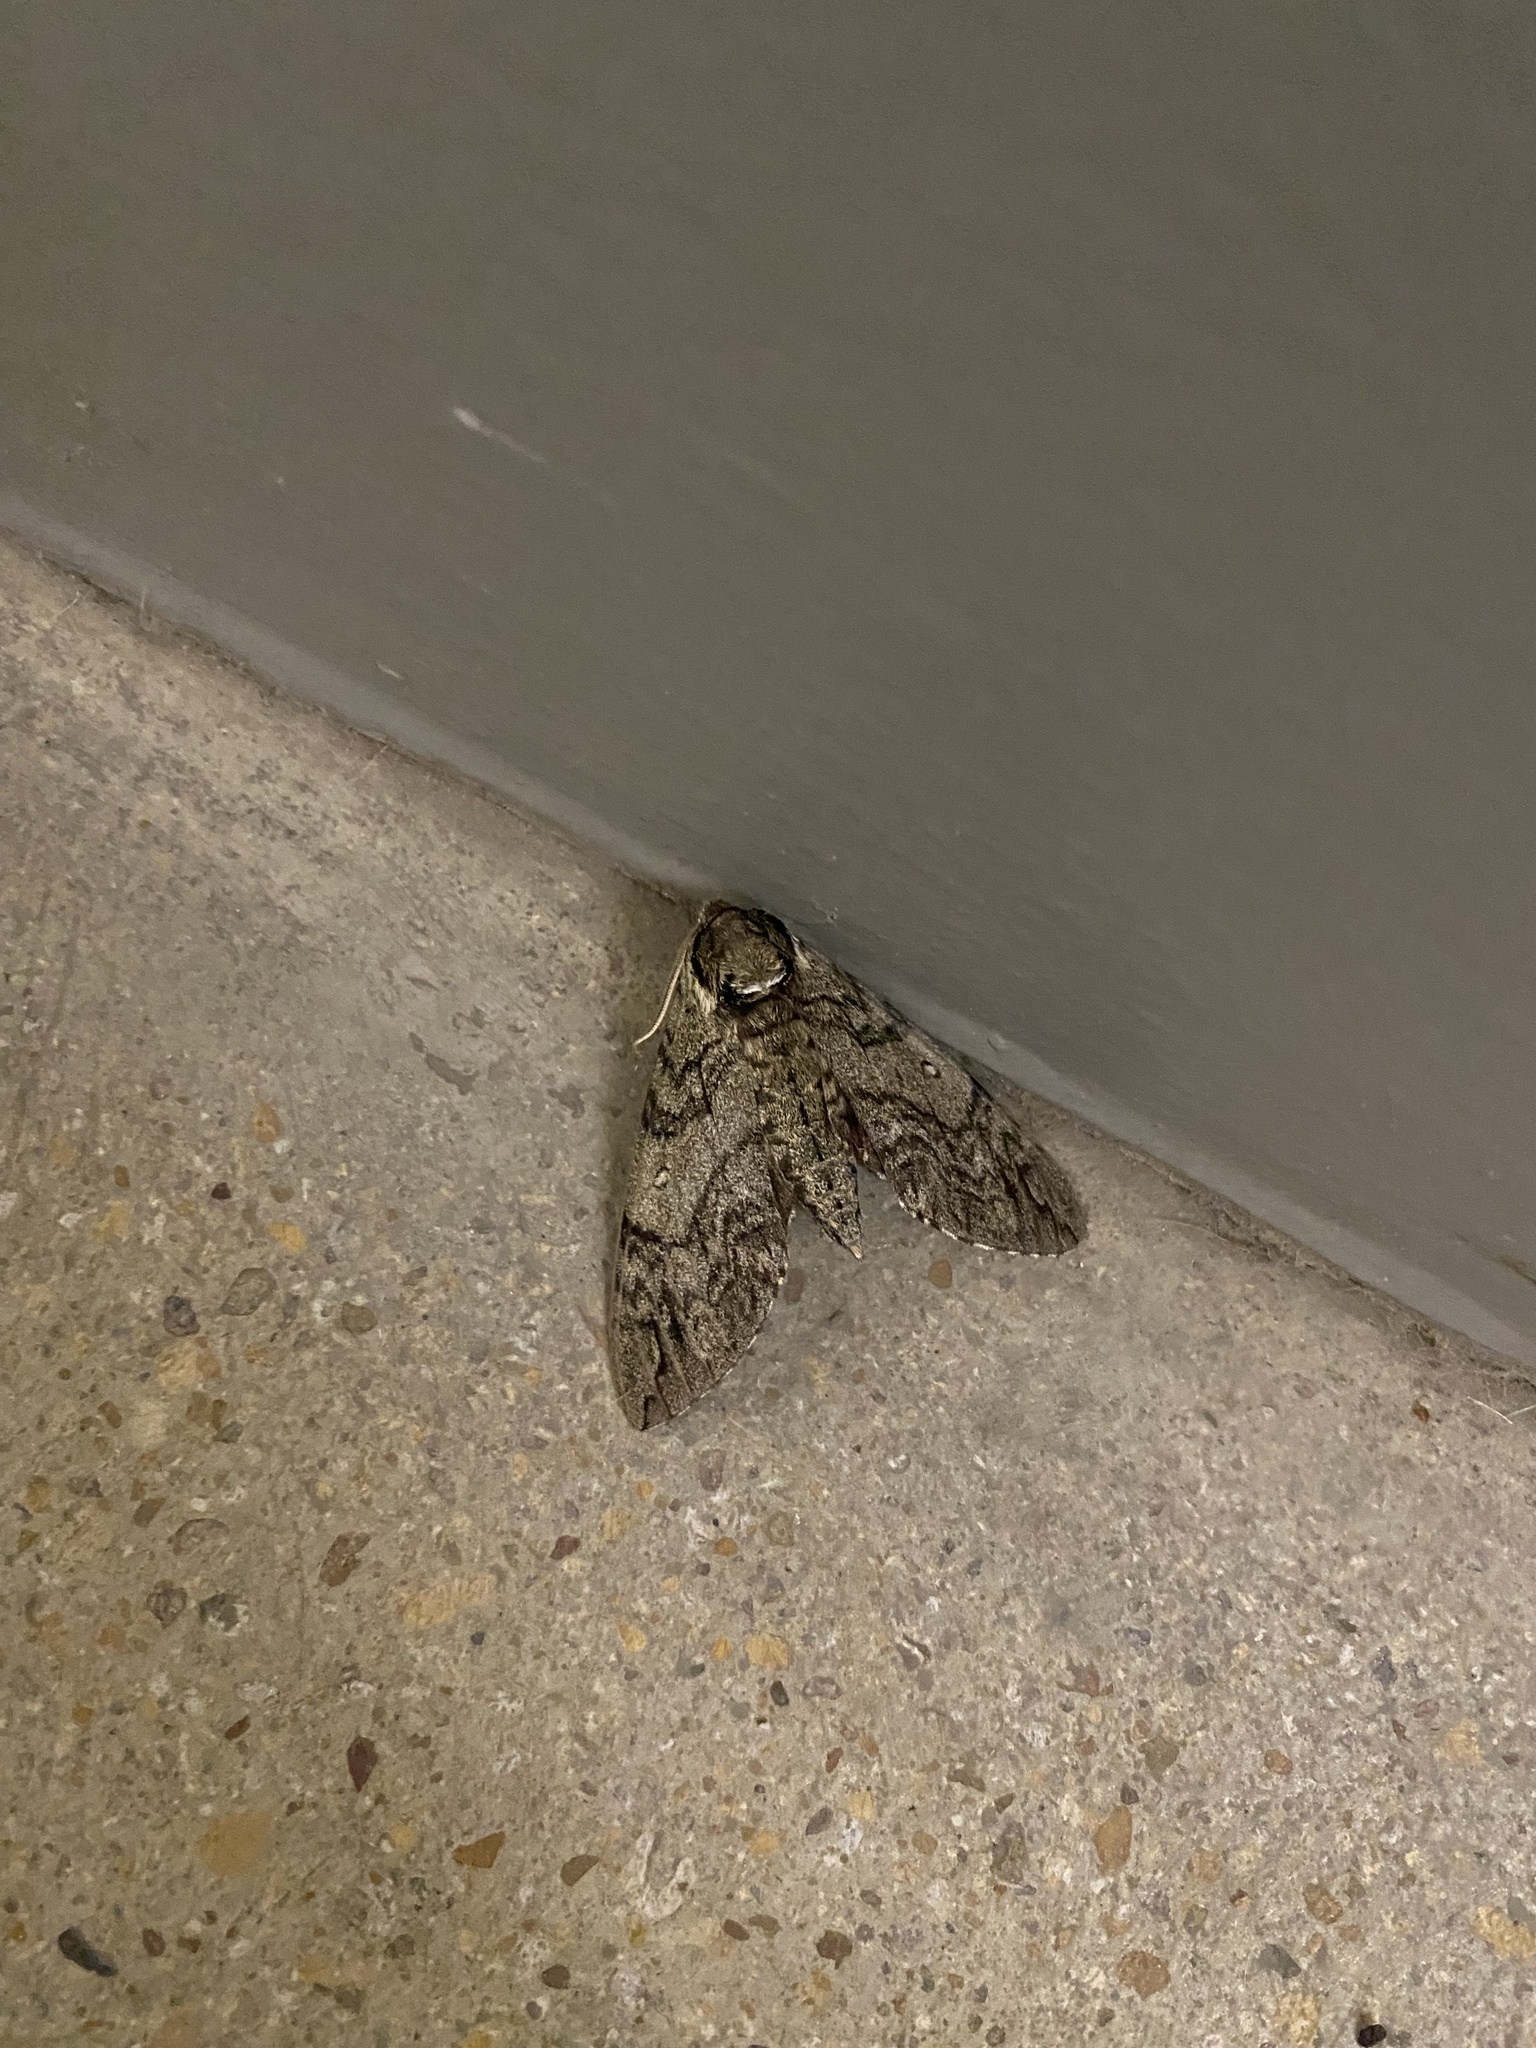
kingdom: Animalia
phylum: Arthropoda
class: Insecta
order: Lepidoptera
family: Sphingidae
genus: Ceratomia
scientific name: Ceratomia undulosa
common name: Waved sphinx
